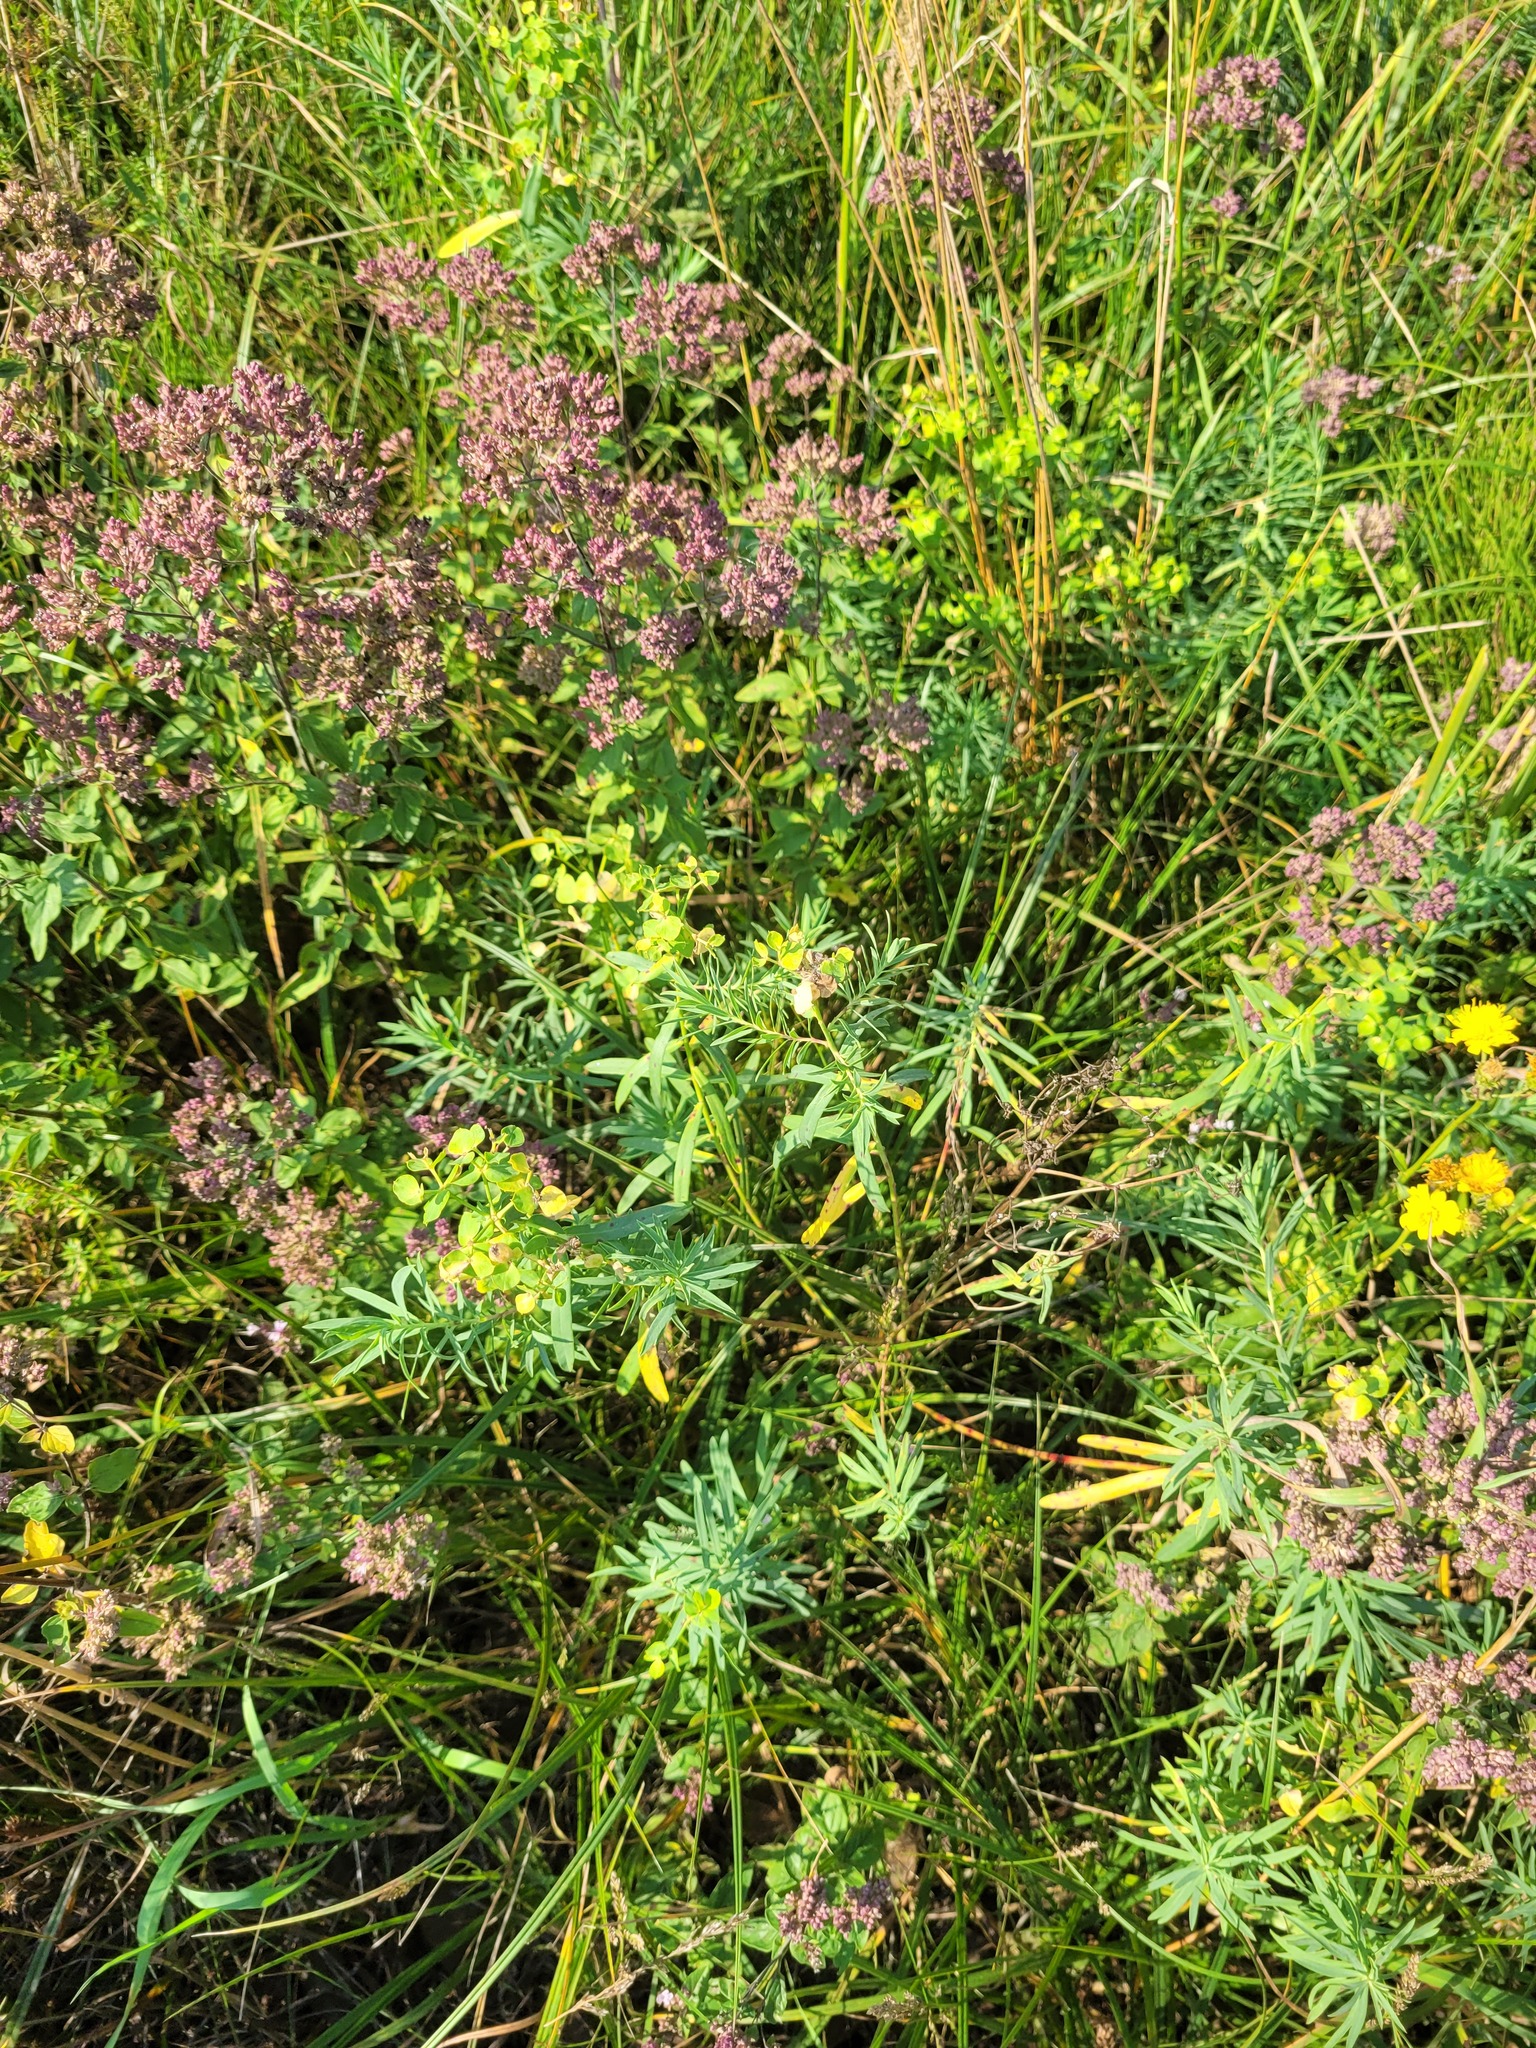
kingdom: Plantae
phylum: Tracheophyta
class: Magnoliopsida
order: Malpighiales
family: Euphorbiaceae
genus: Euphorbia
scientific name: Euphorbia virgata
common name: Leafy spurge
